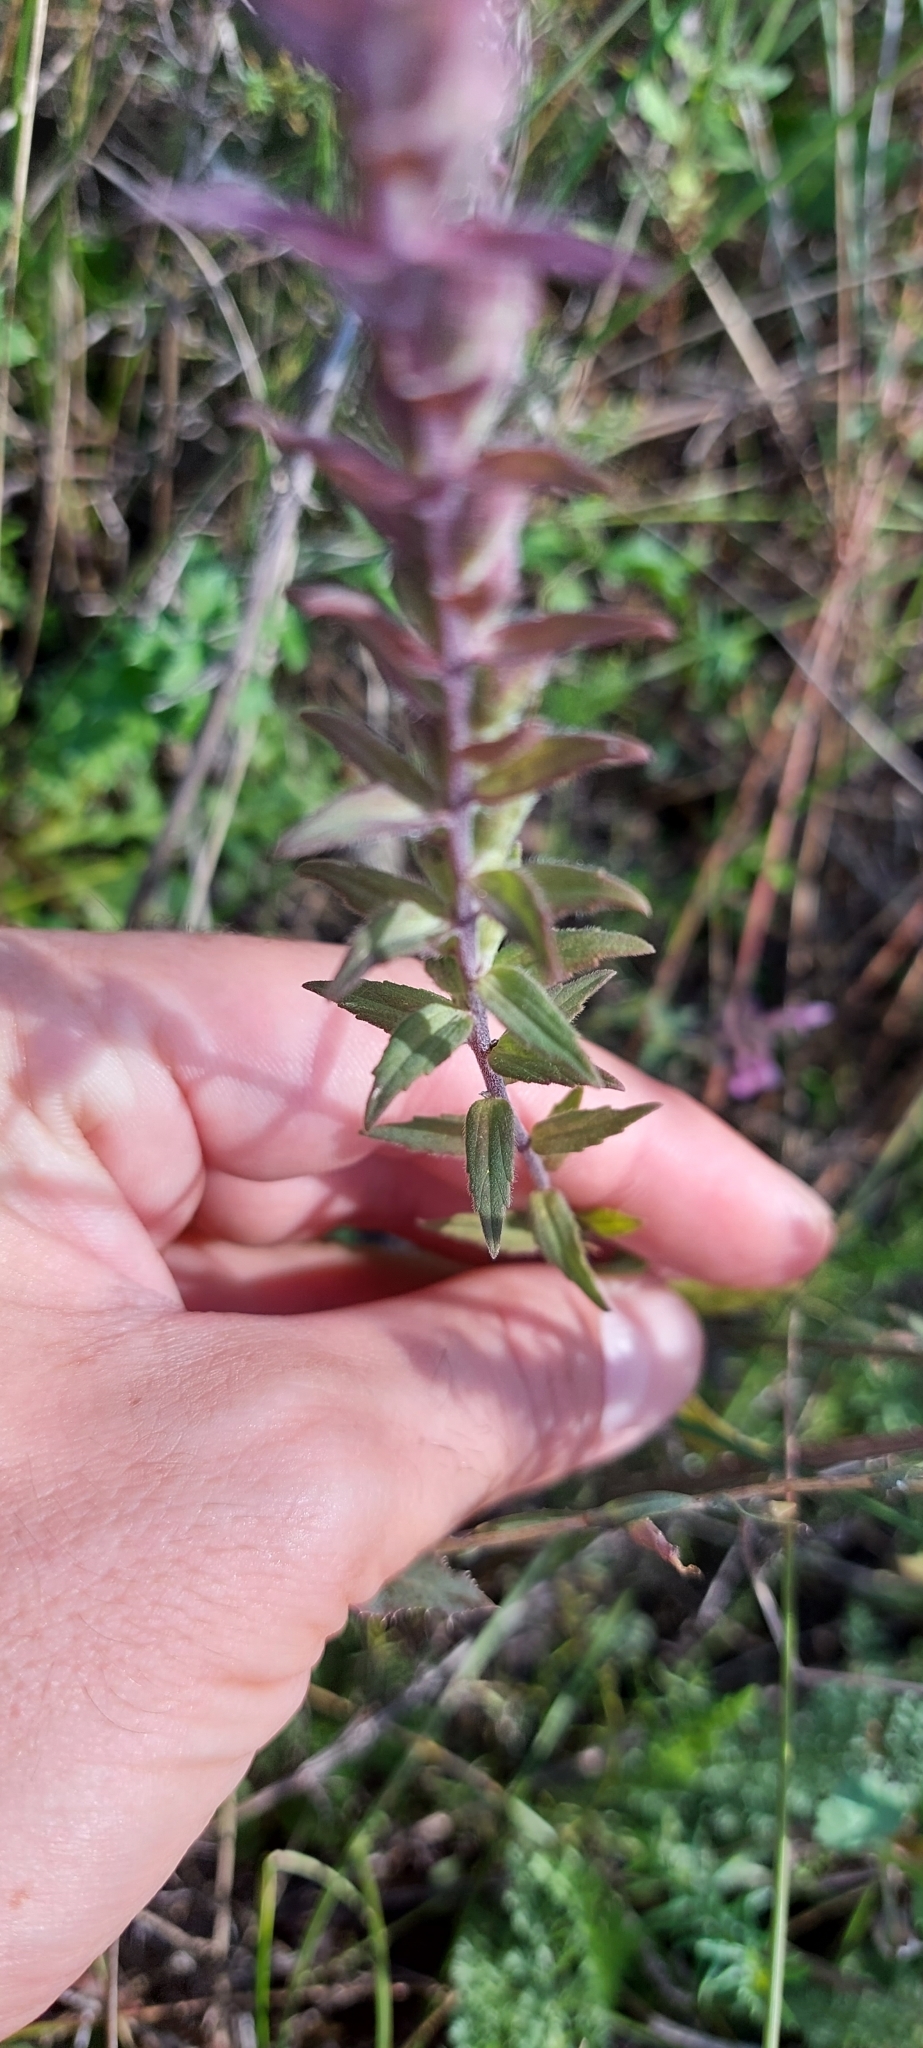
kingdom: Plantae
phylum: Tracheophyta
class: Magnoliopsida
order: Lamiales
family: Orobanchaceae
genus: Odontites
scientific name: Odontites vulgaris
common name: Broomrape
